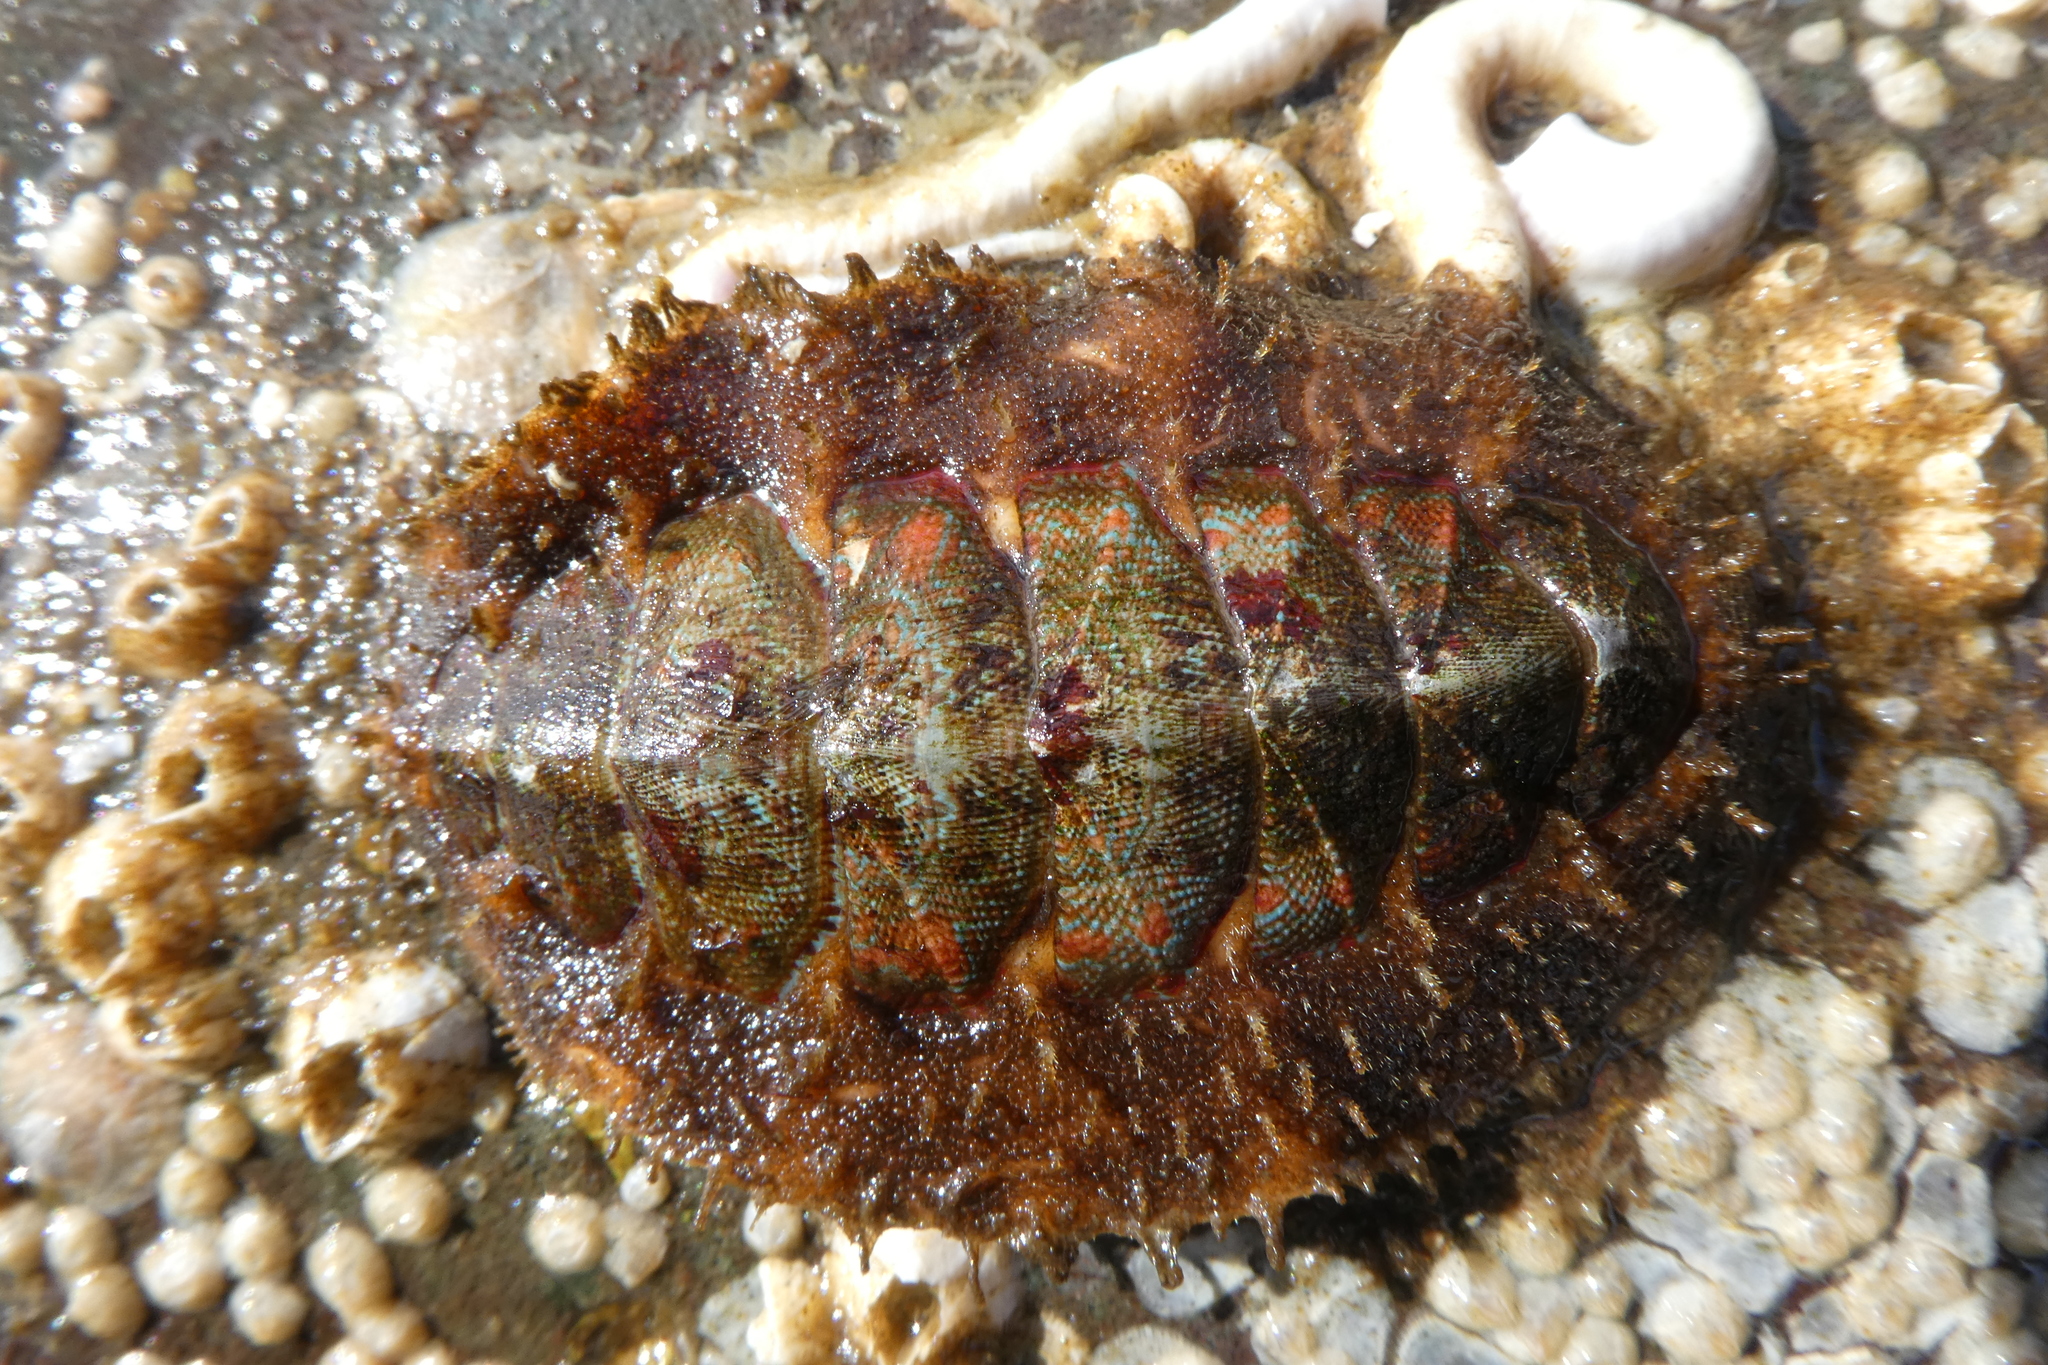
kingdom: Animalia
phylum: Mollusca
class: Polyplacophora
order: Chitonida
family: Mopaliidae
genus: Mopalia
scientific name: Mopalia spectabilis
